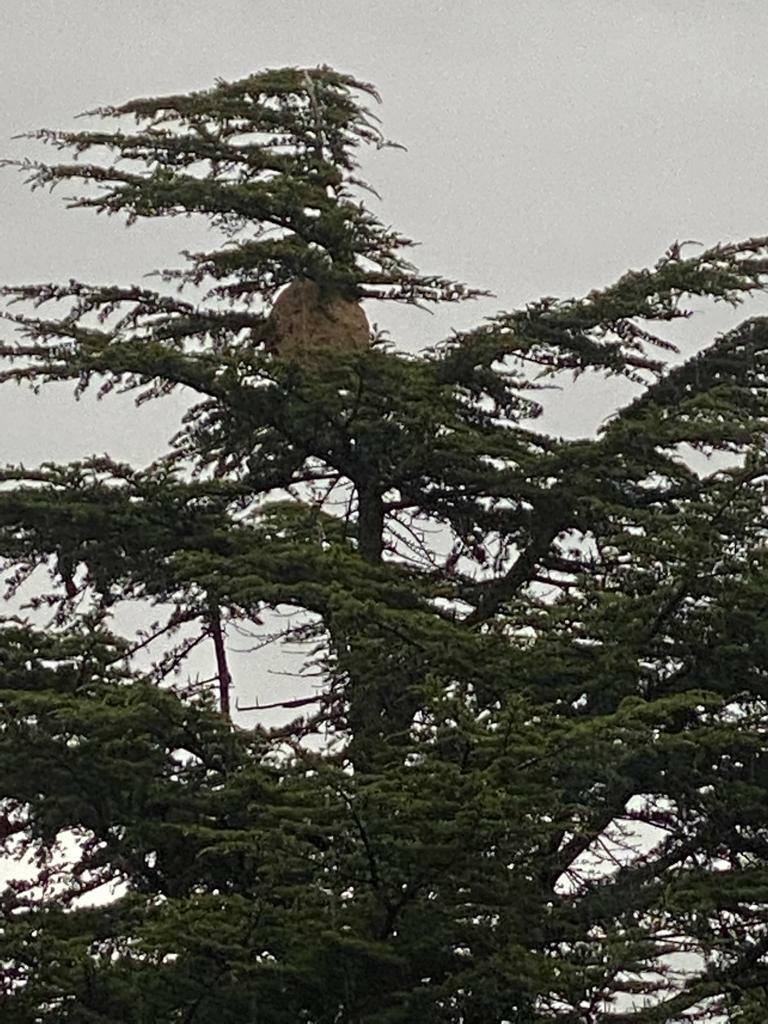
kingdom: Animalia
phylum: Arthropoda
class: Insecta
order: Hymenoptera
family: Vespidae
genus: Vespa
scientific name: Vespa velutina
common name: Asian hornet
